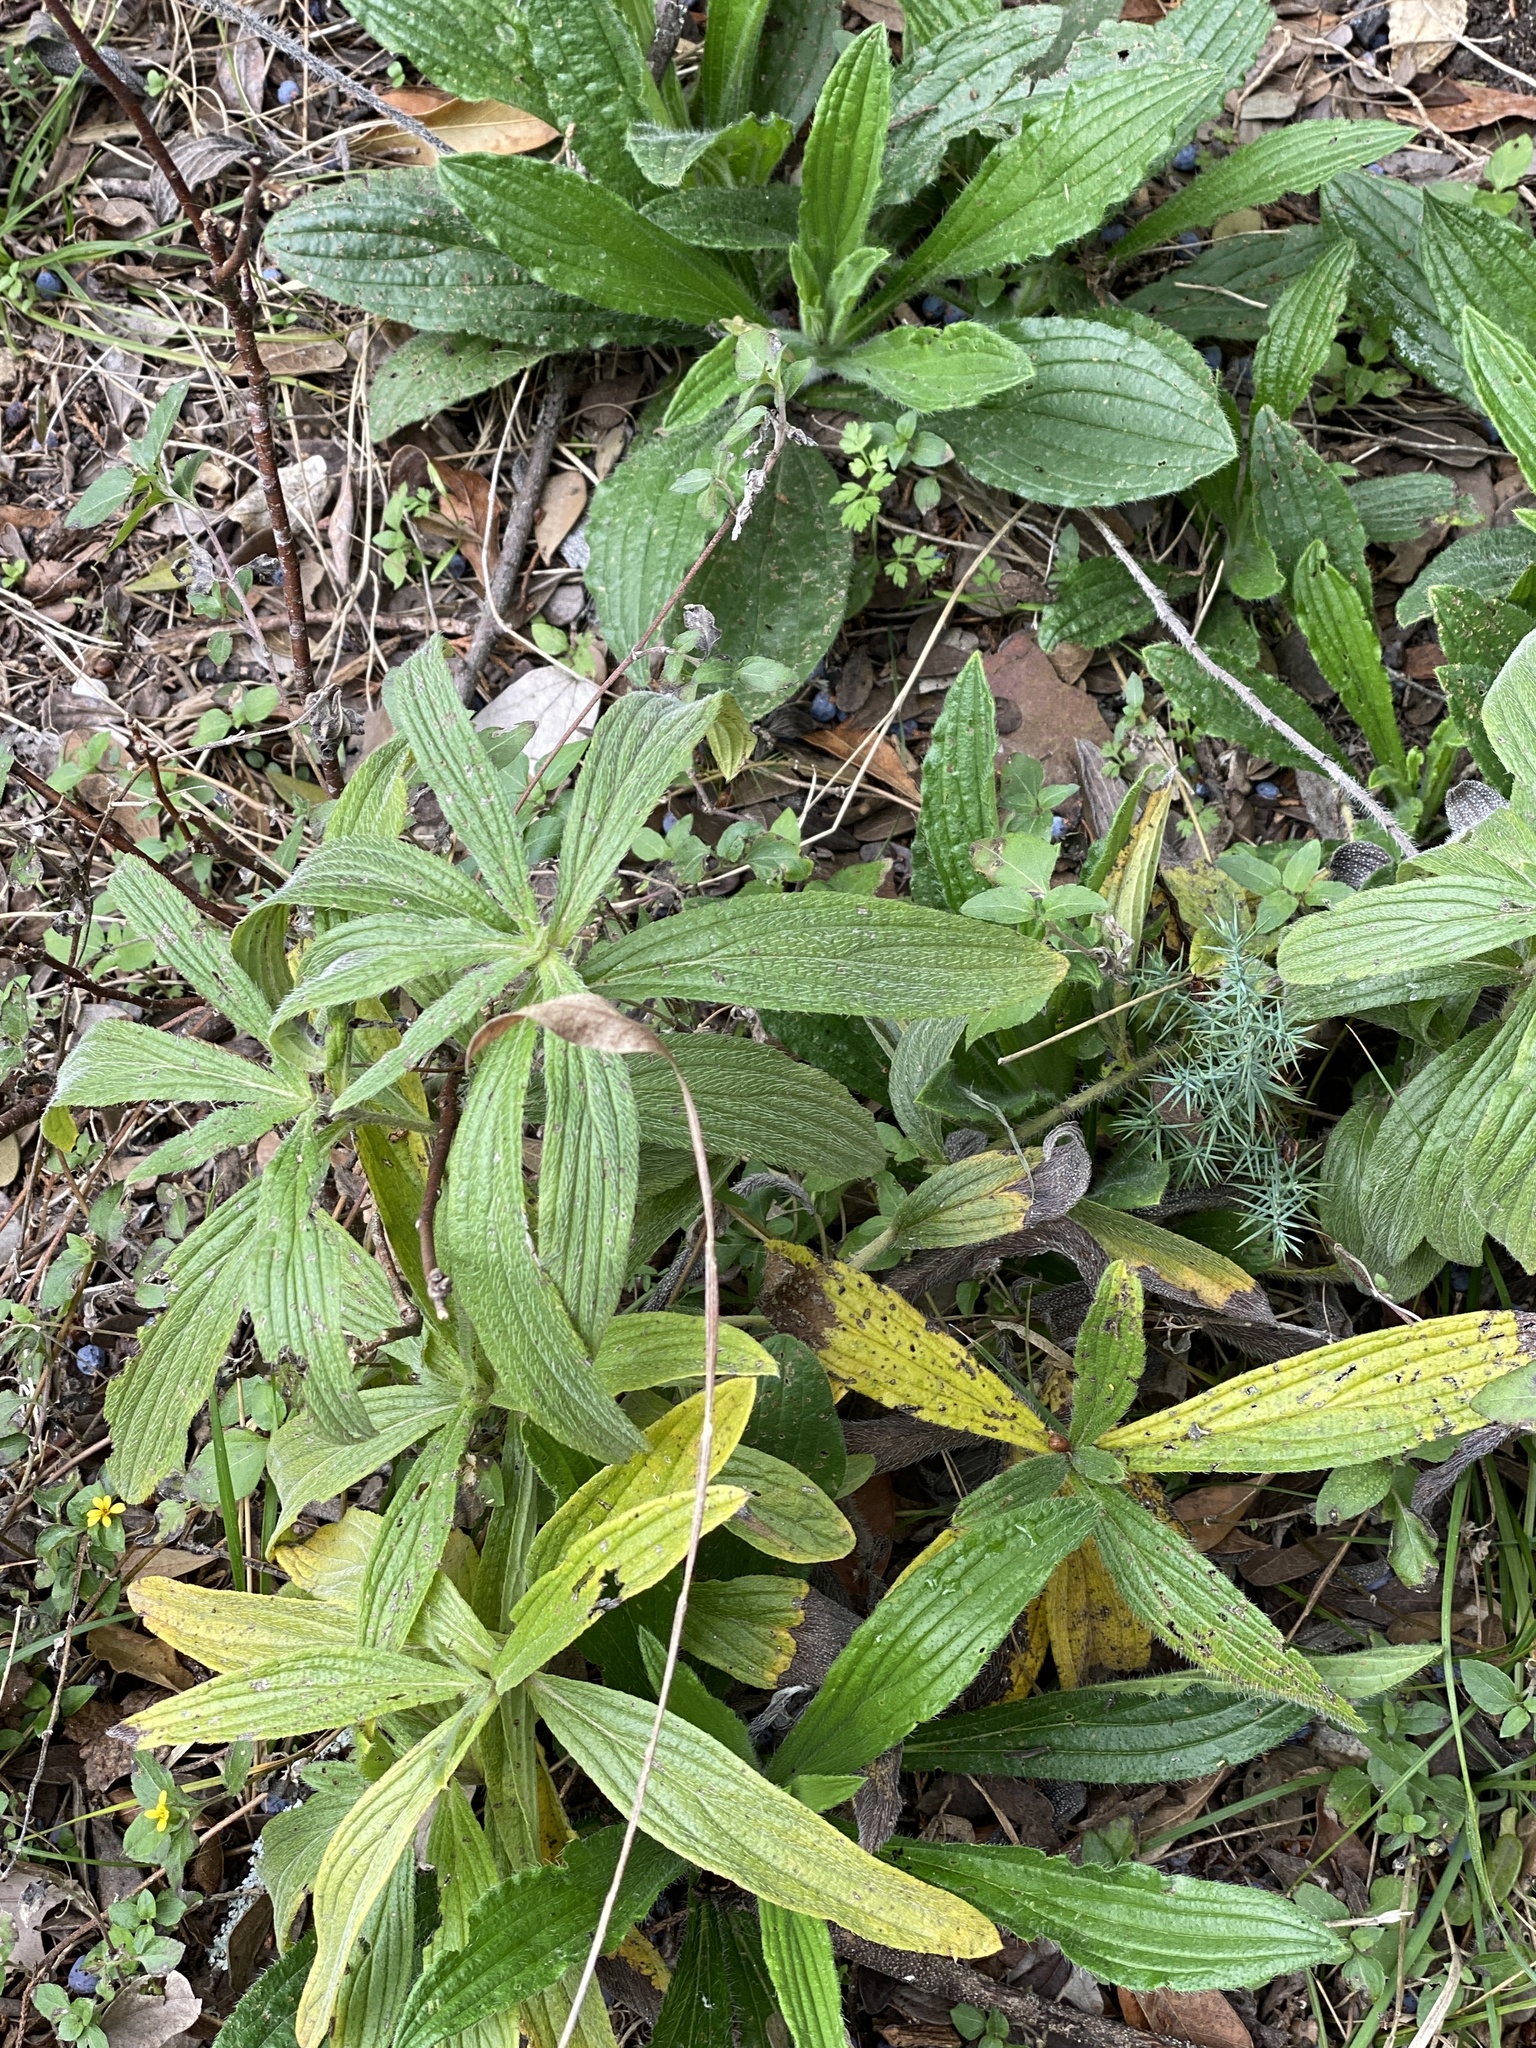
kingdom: Plantae
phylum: Tracheophyta
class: Magnoliopsida
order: Boraginales
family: Boraginaceae
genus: Lithospermum
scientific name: Lithospermum caroliniense
